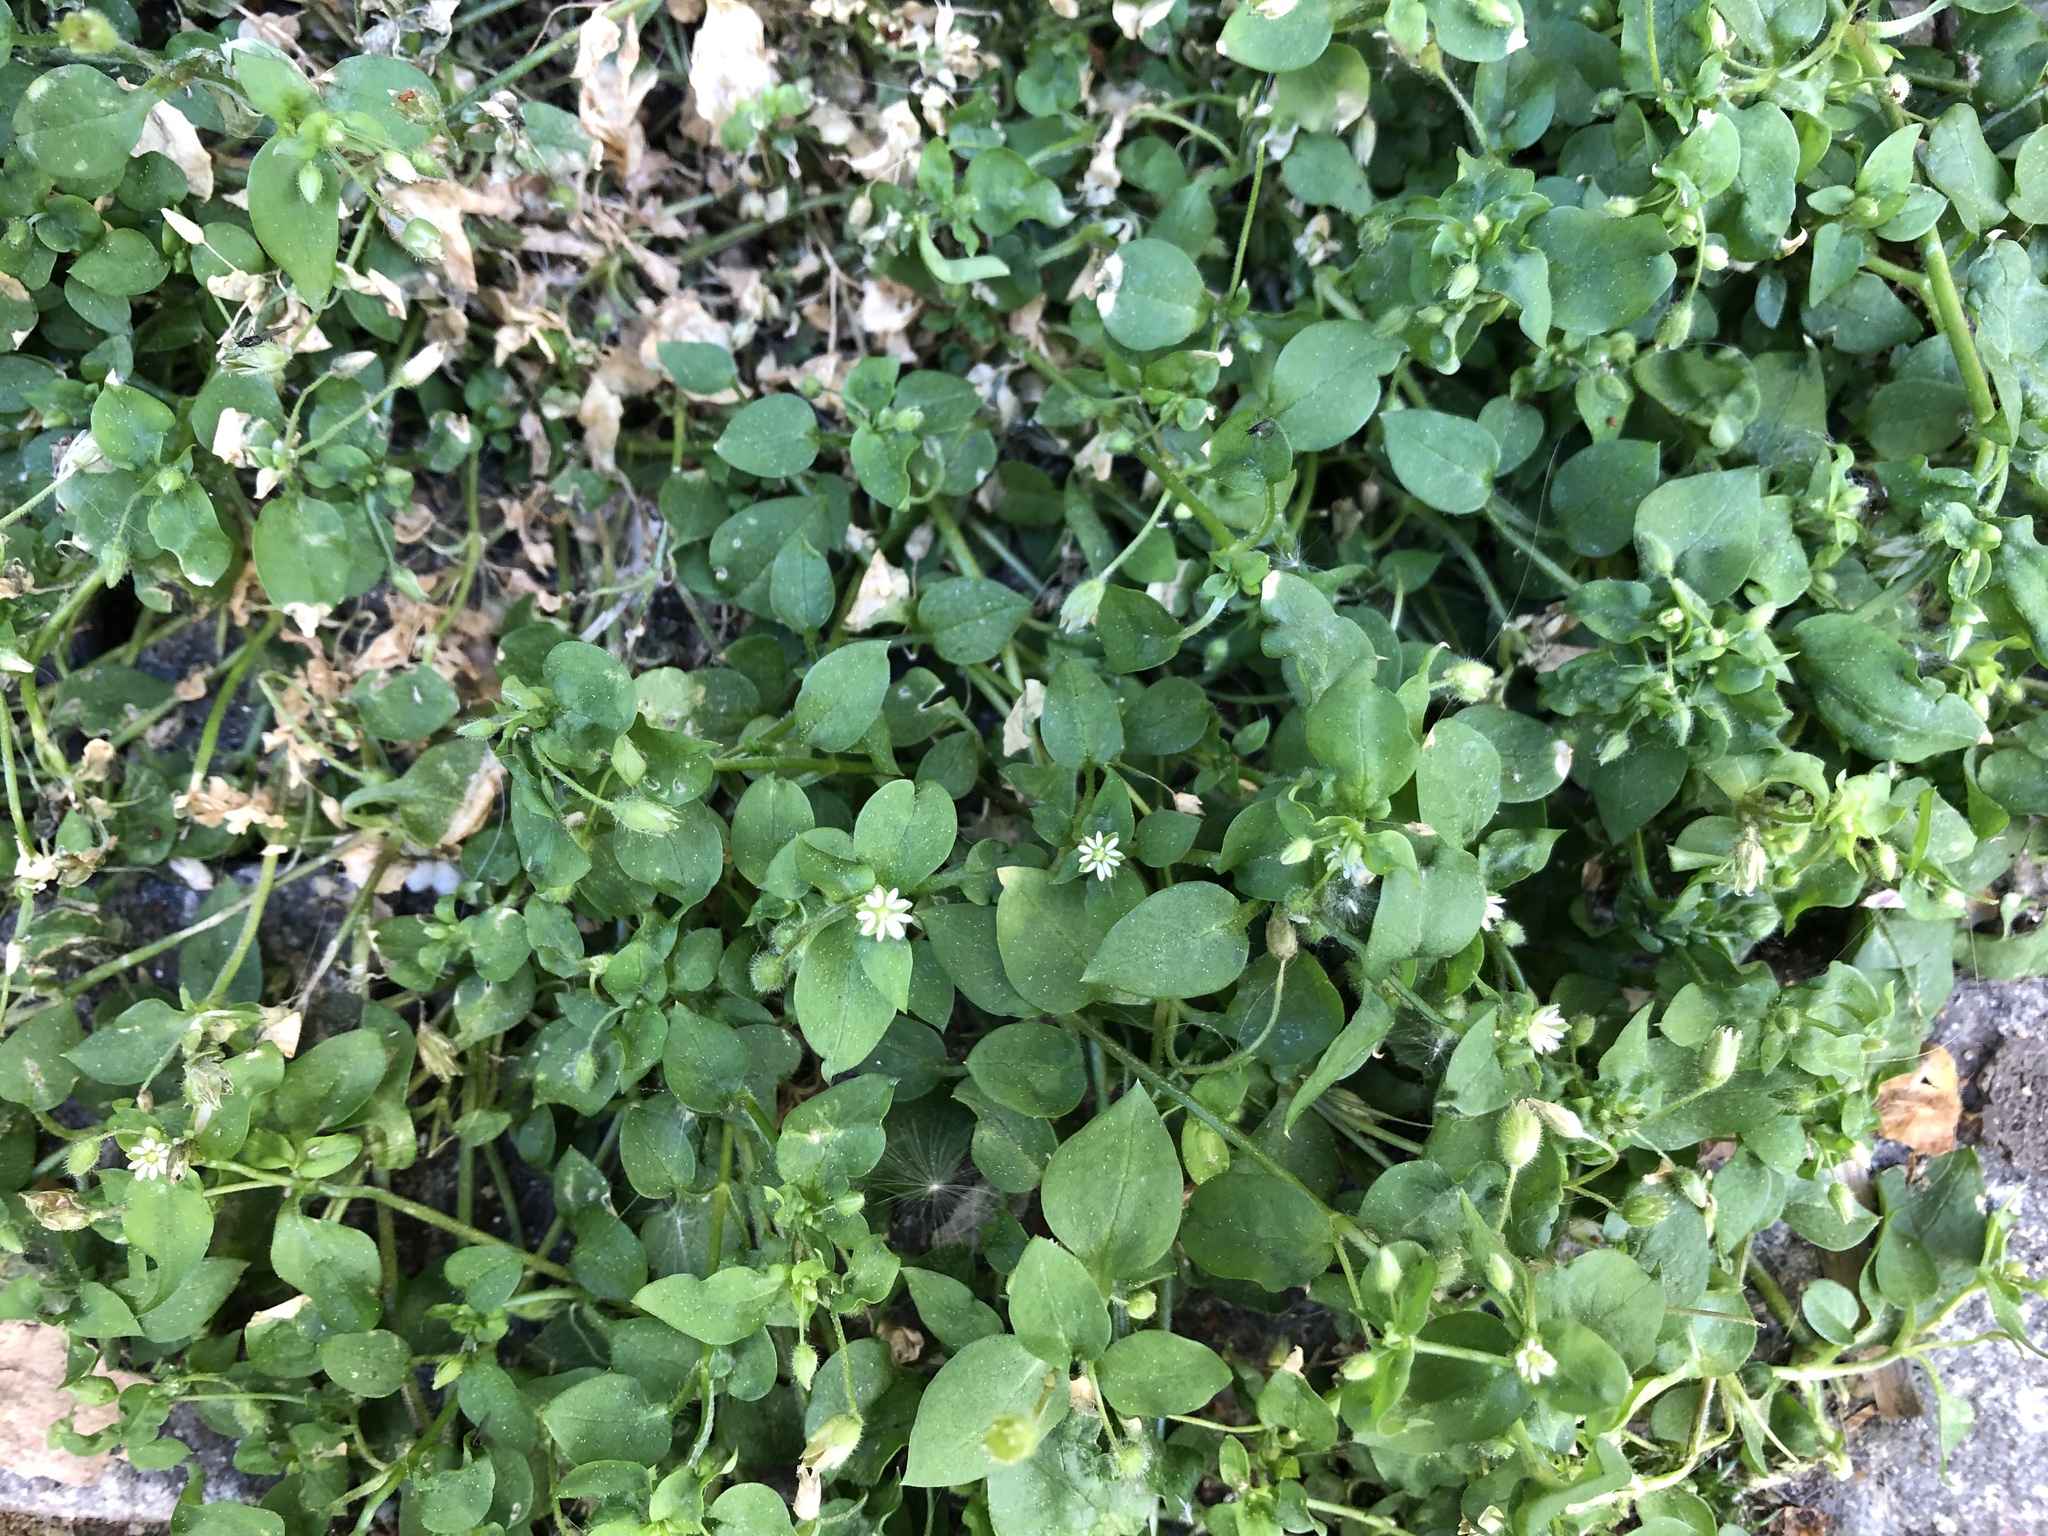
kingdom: Plantae
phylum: Tracheophyta
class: Magnoliopsida
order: Caryophyllales
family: Caryophyllaceae
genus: Stellaria
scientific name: Stellaria media
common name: Common chickweed
